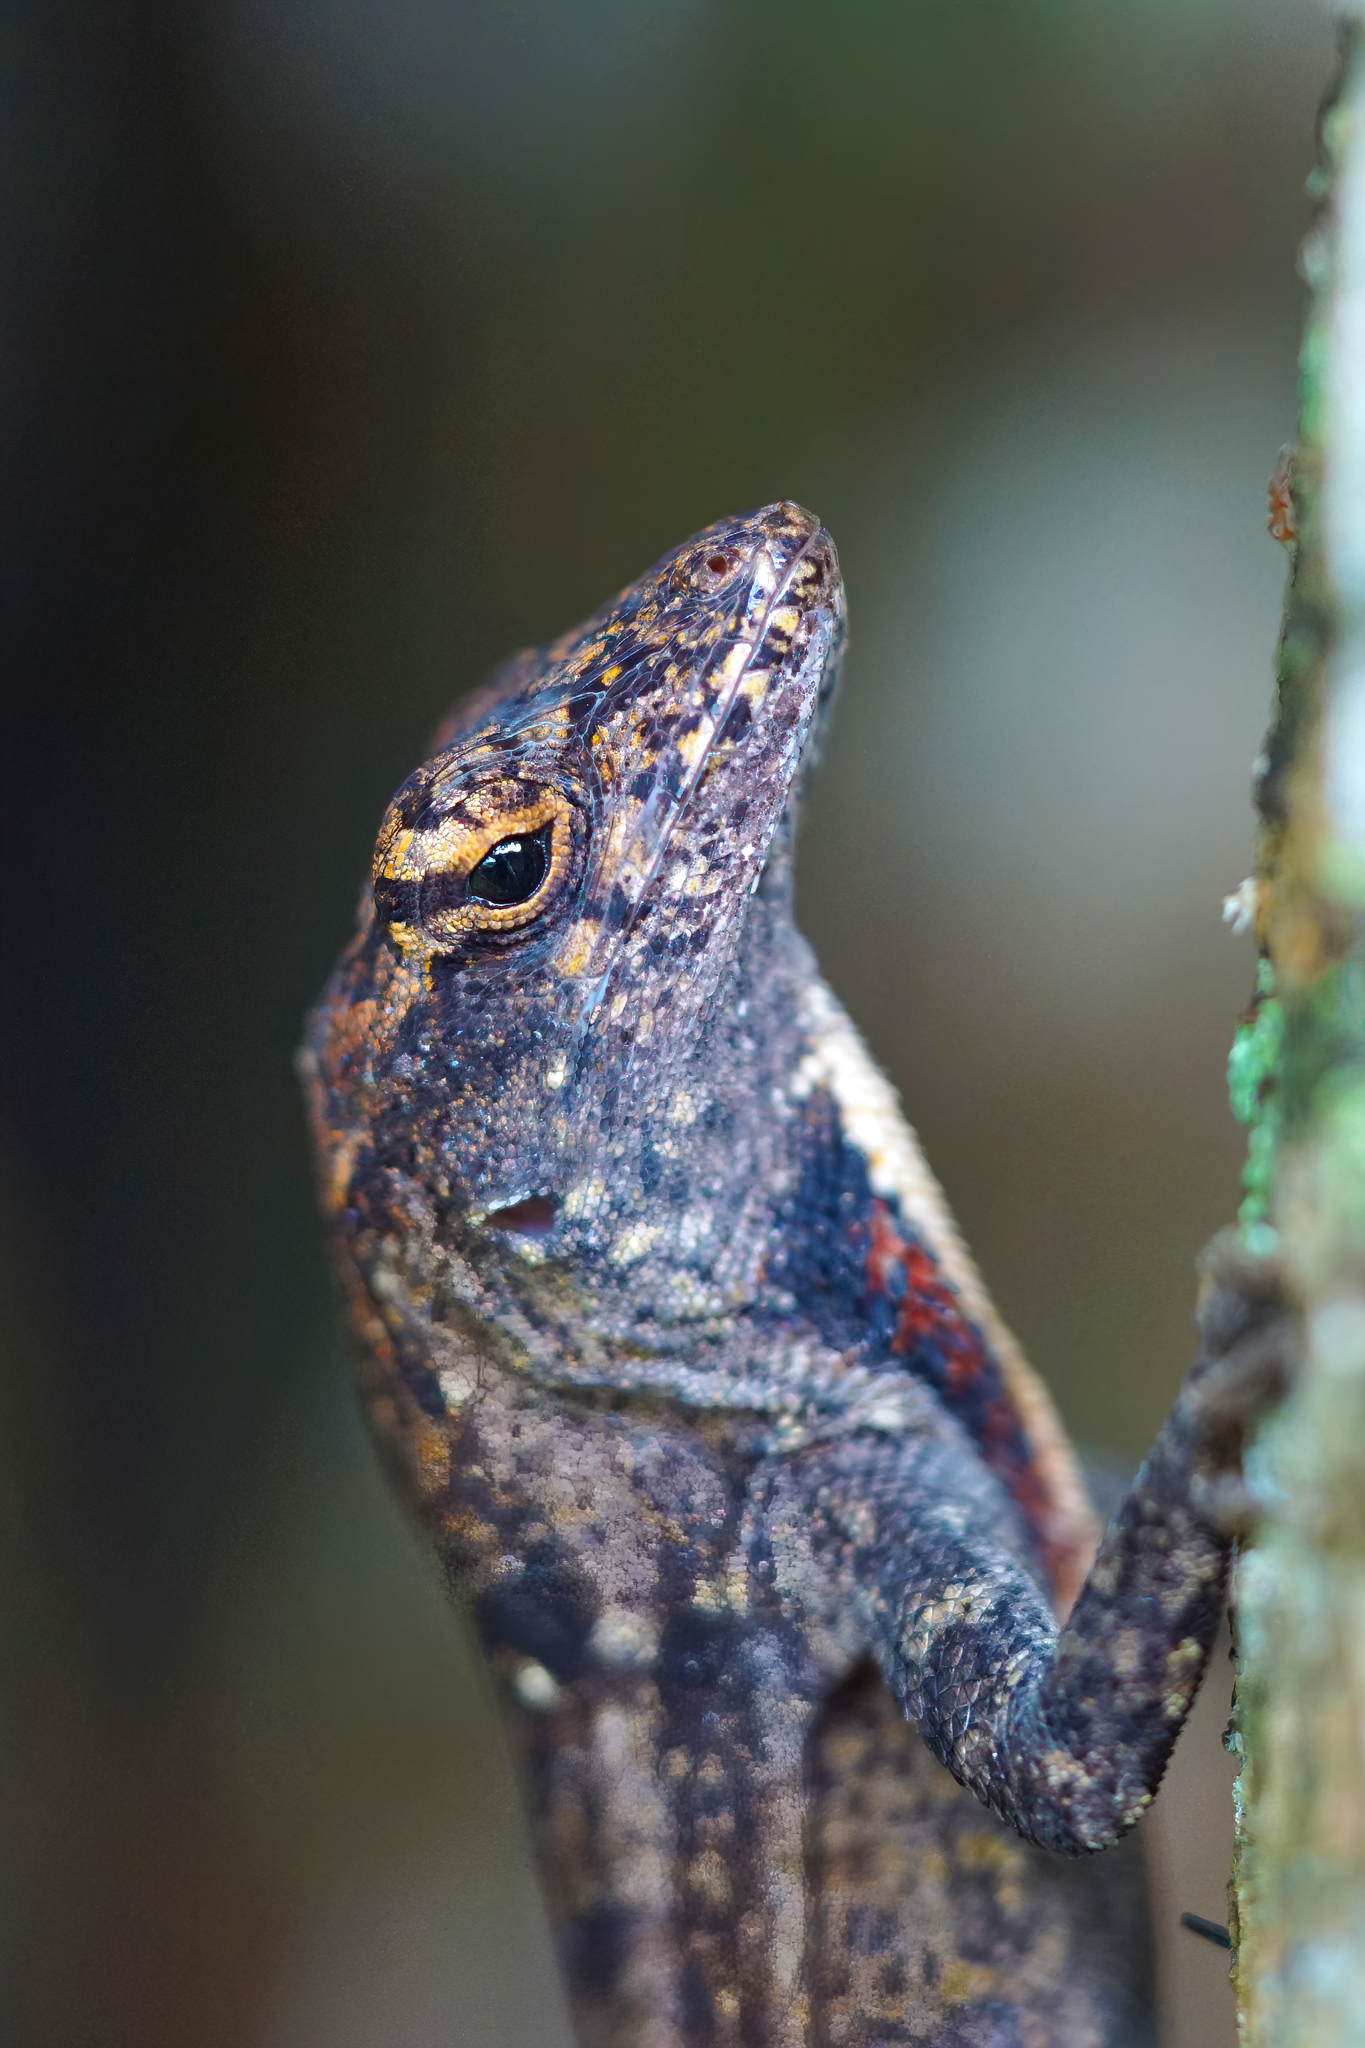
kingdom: Animalia
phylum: Chordata
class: Squamata
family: Dactyloidae
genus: Anolis
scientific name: Anolis sagrei
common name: Brown anole
